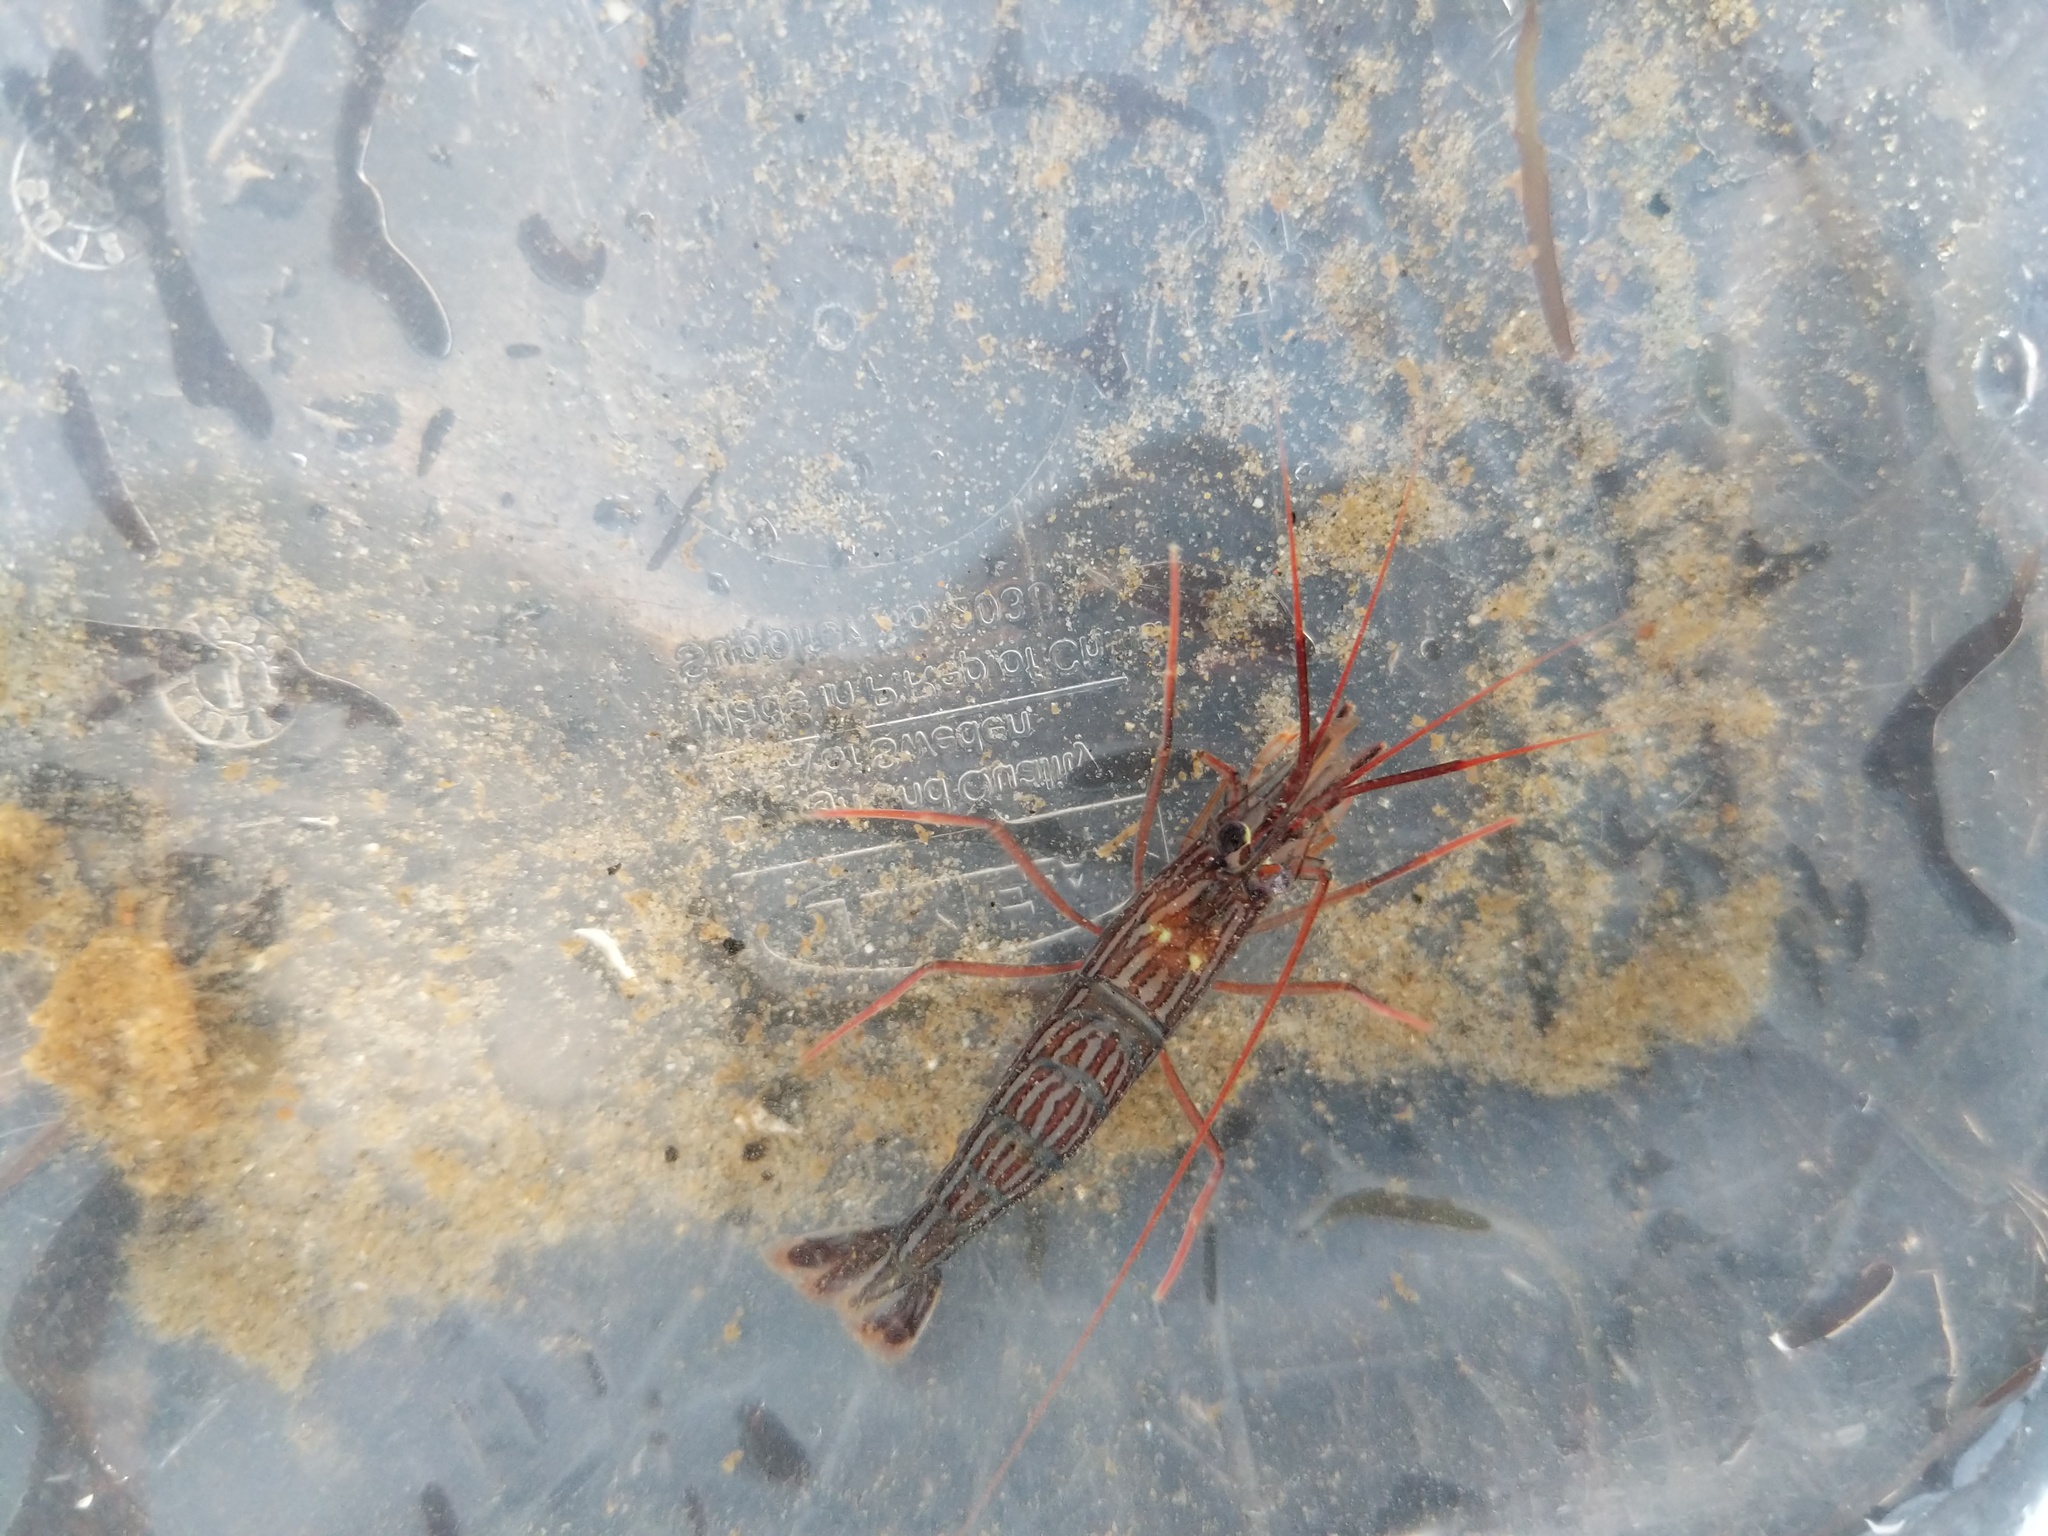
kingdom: Animalia
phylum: Arthropoda
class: Malacostraca
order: Decapoda
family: Lysmatidae
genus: Lysmata
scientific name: Lysmata californica
